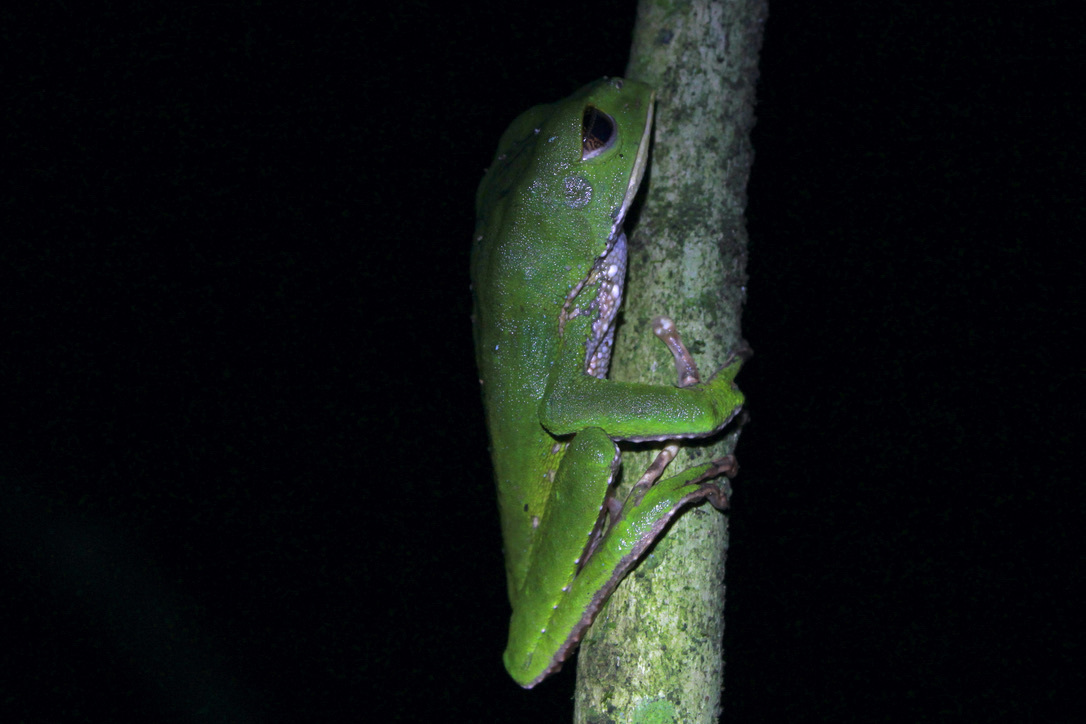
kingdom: Animalia
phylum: Chordata
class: Amphibia
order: Anura
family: Phyllomedusidae
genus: Phyllomedusa
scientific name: Phyllomedusa trinitatis
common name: Trinidad leaf-nesting frog
